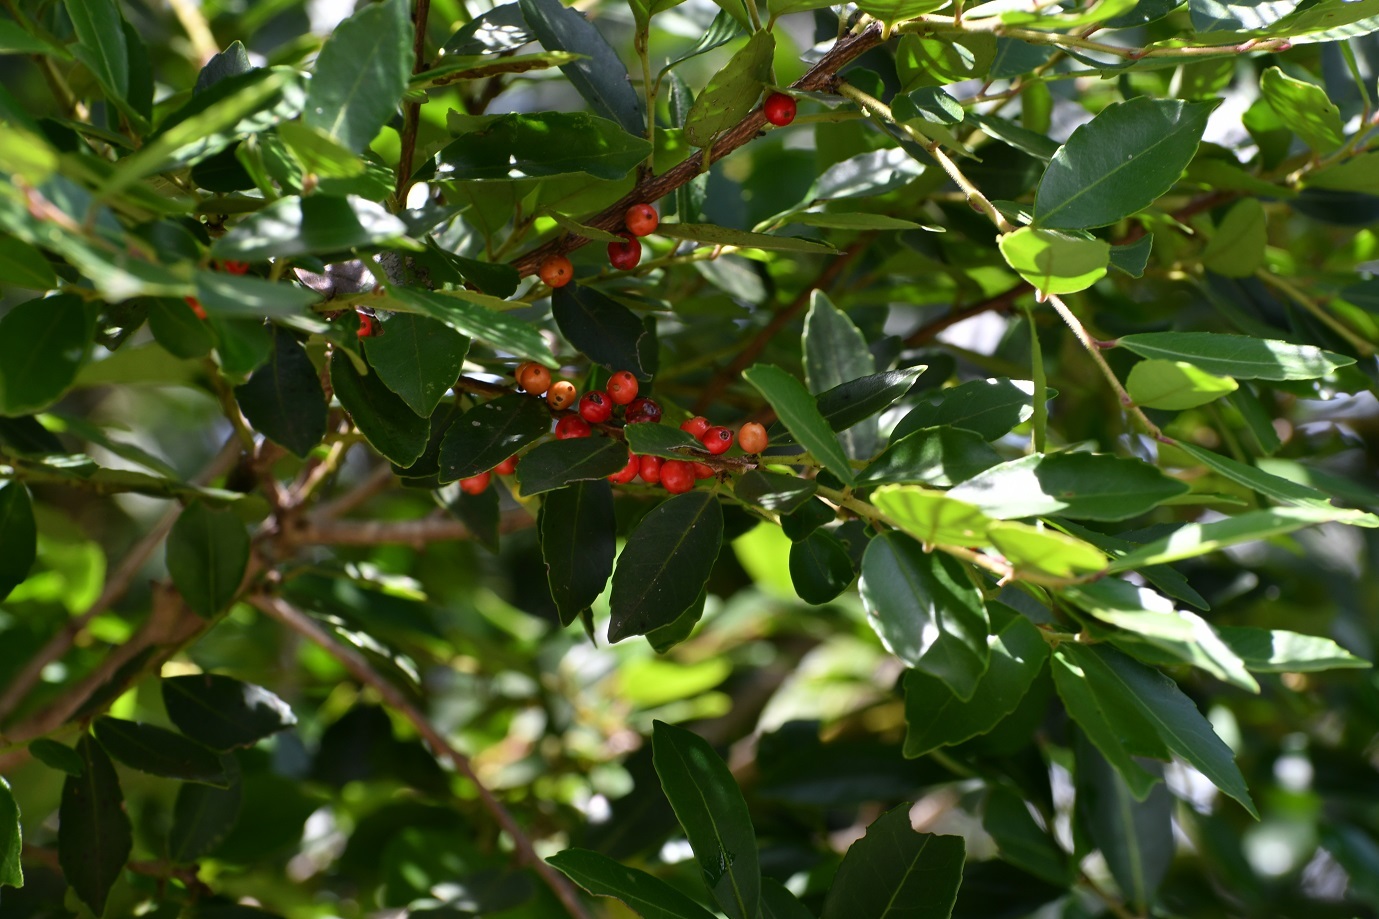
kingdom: Plantae
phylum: Tracheophyta
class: Magnoliopsida
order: Aquifoliales
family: Aquifoliaceae
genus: Ilex
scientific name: Ilex vomitoria
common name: Yaupon holly
